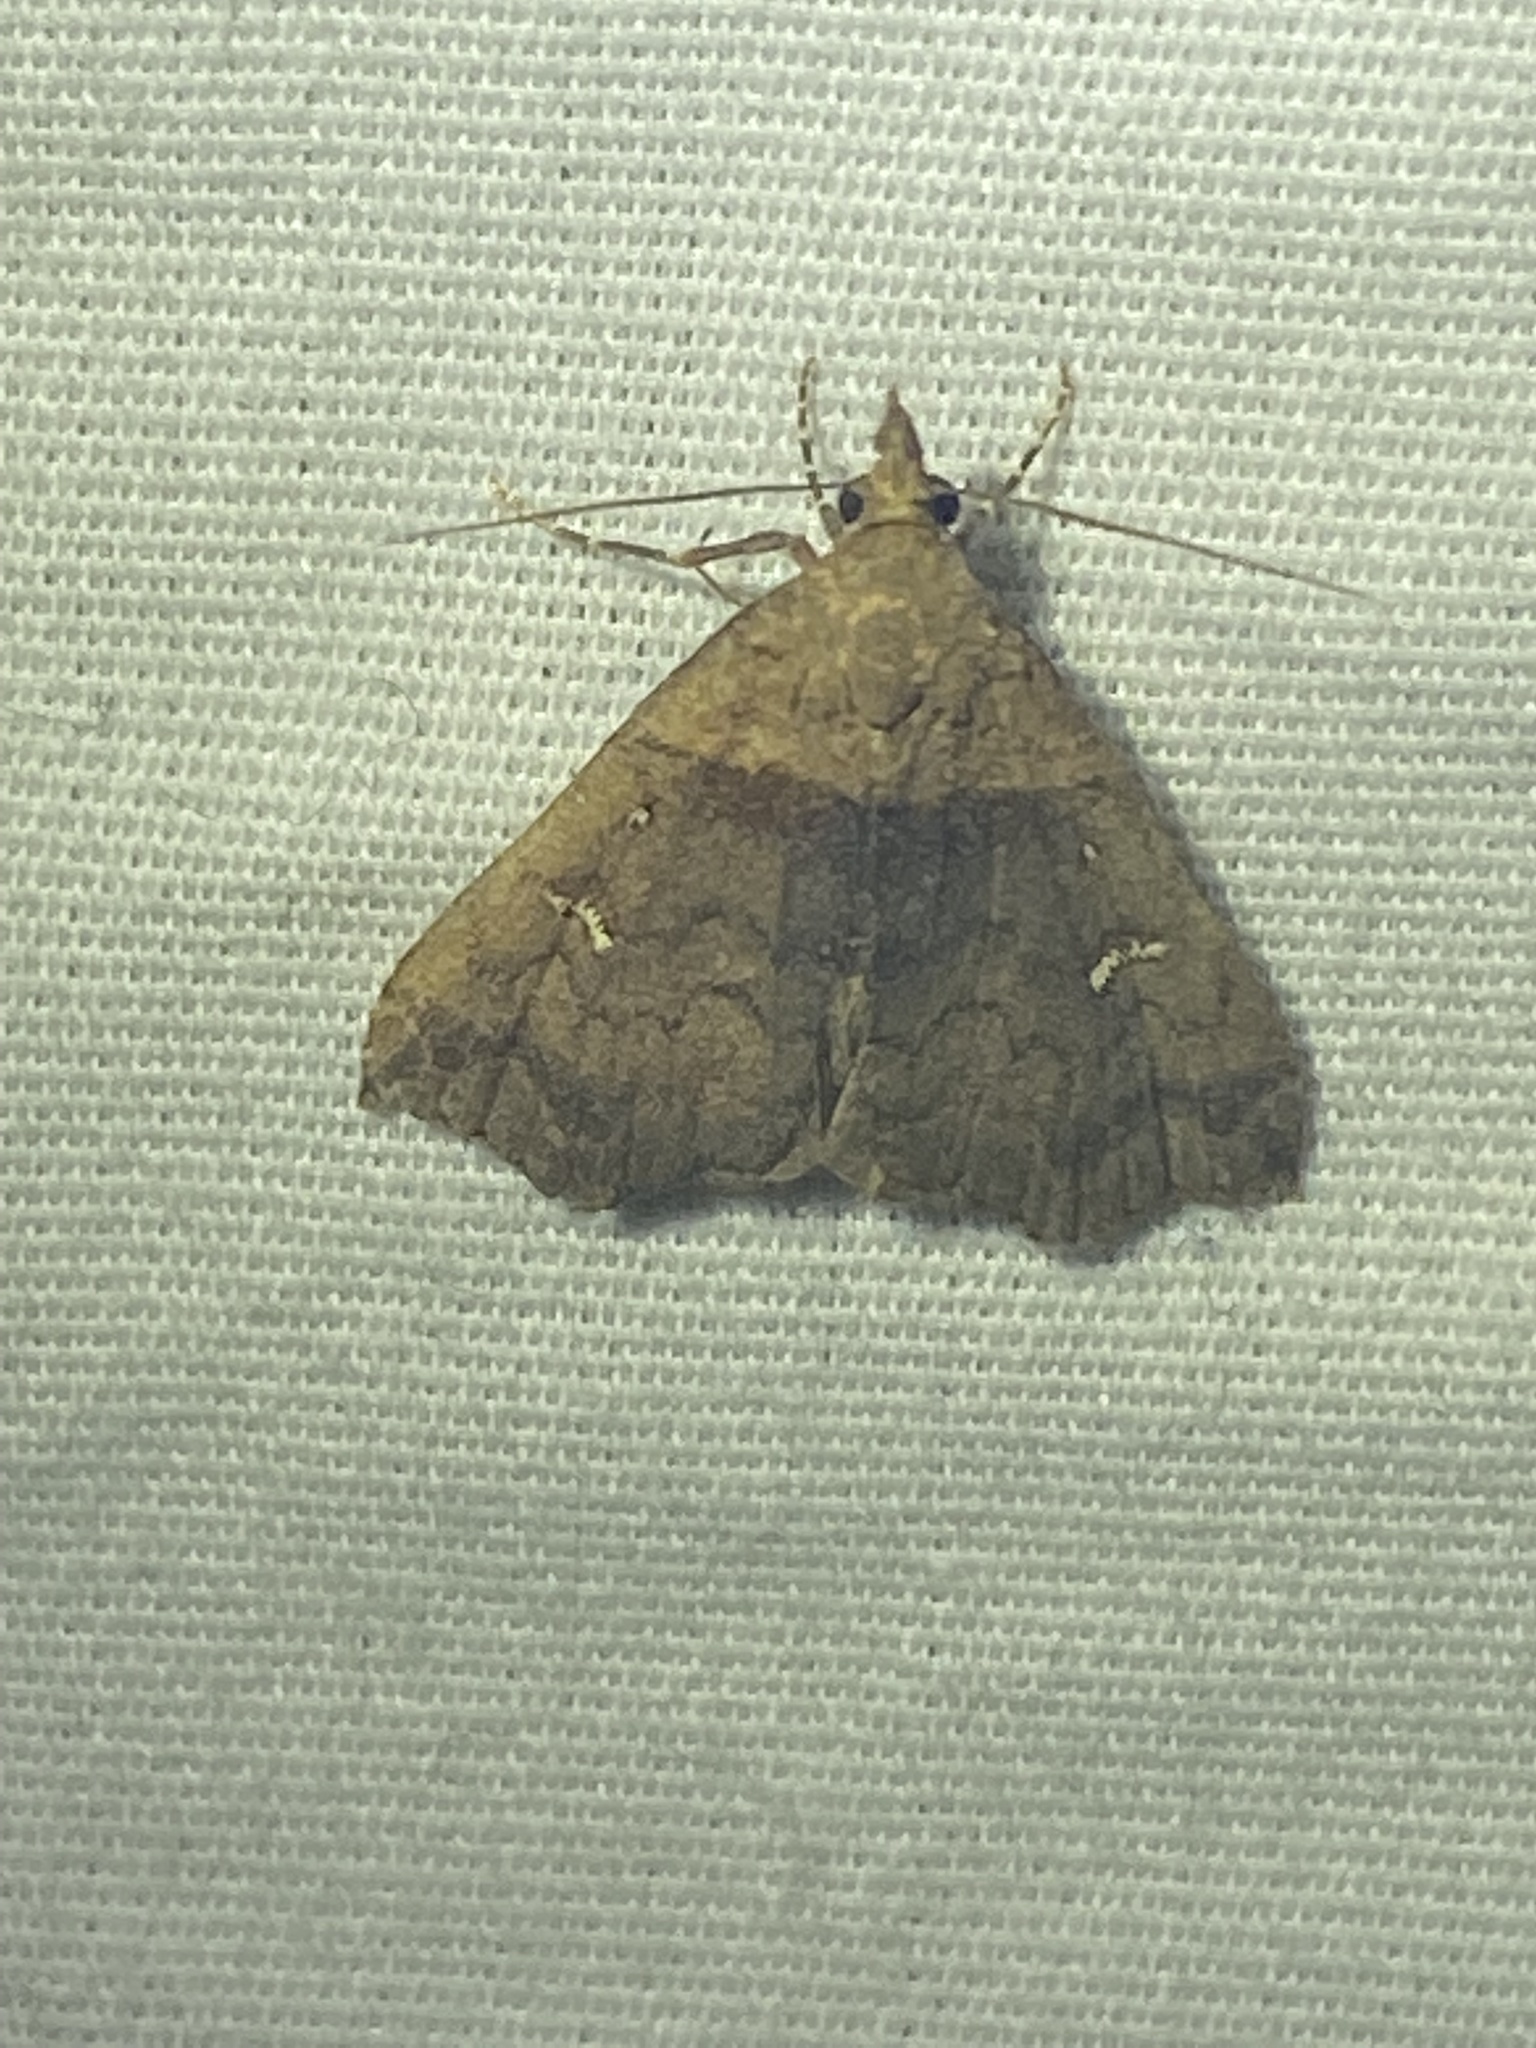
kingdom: Animalia
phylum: Arthropoda
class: Insecta
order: Lepidoptera
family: Erebidae
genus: Lascoria
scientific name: Lascoria ambigualis
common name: Ambiguous moth
